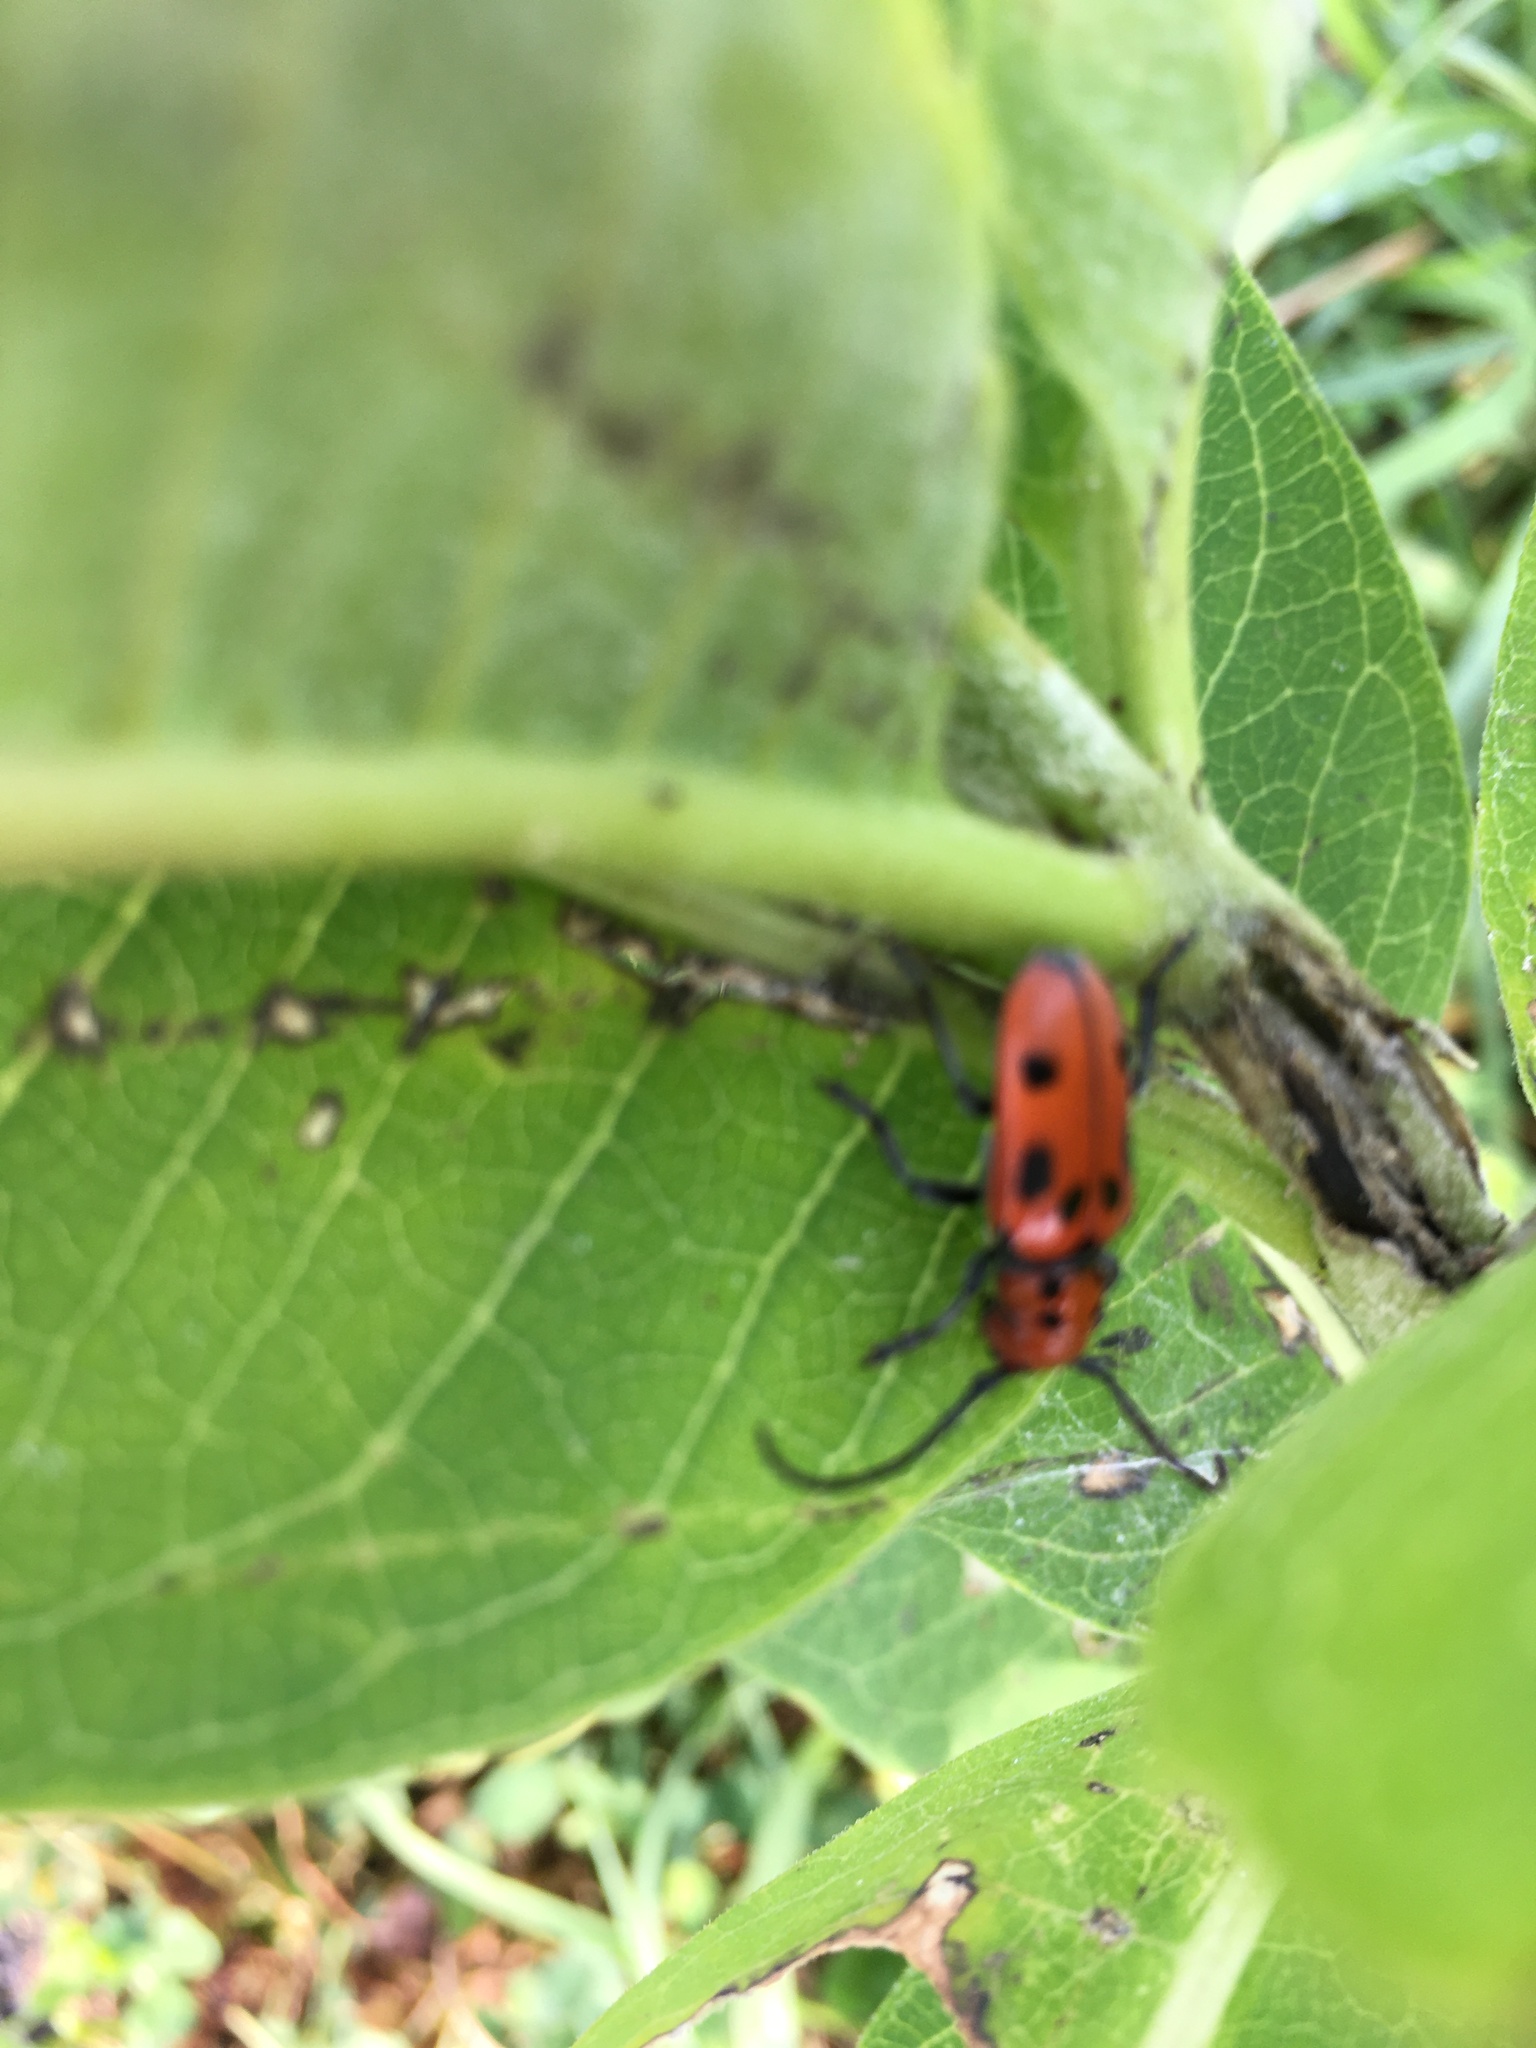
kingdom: Animalia
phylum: Arthropoda
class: Insecta
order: Coleoptera
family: Cerambycidae
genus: Tetraopes
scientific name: Tetraopes tetrophthalmus
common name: Red milkweed beetle
